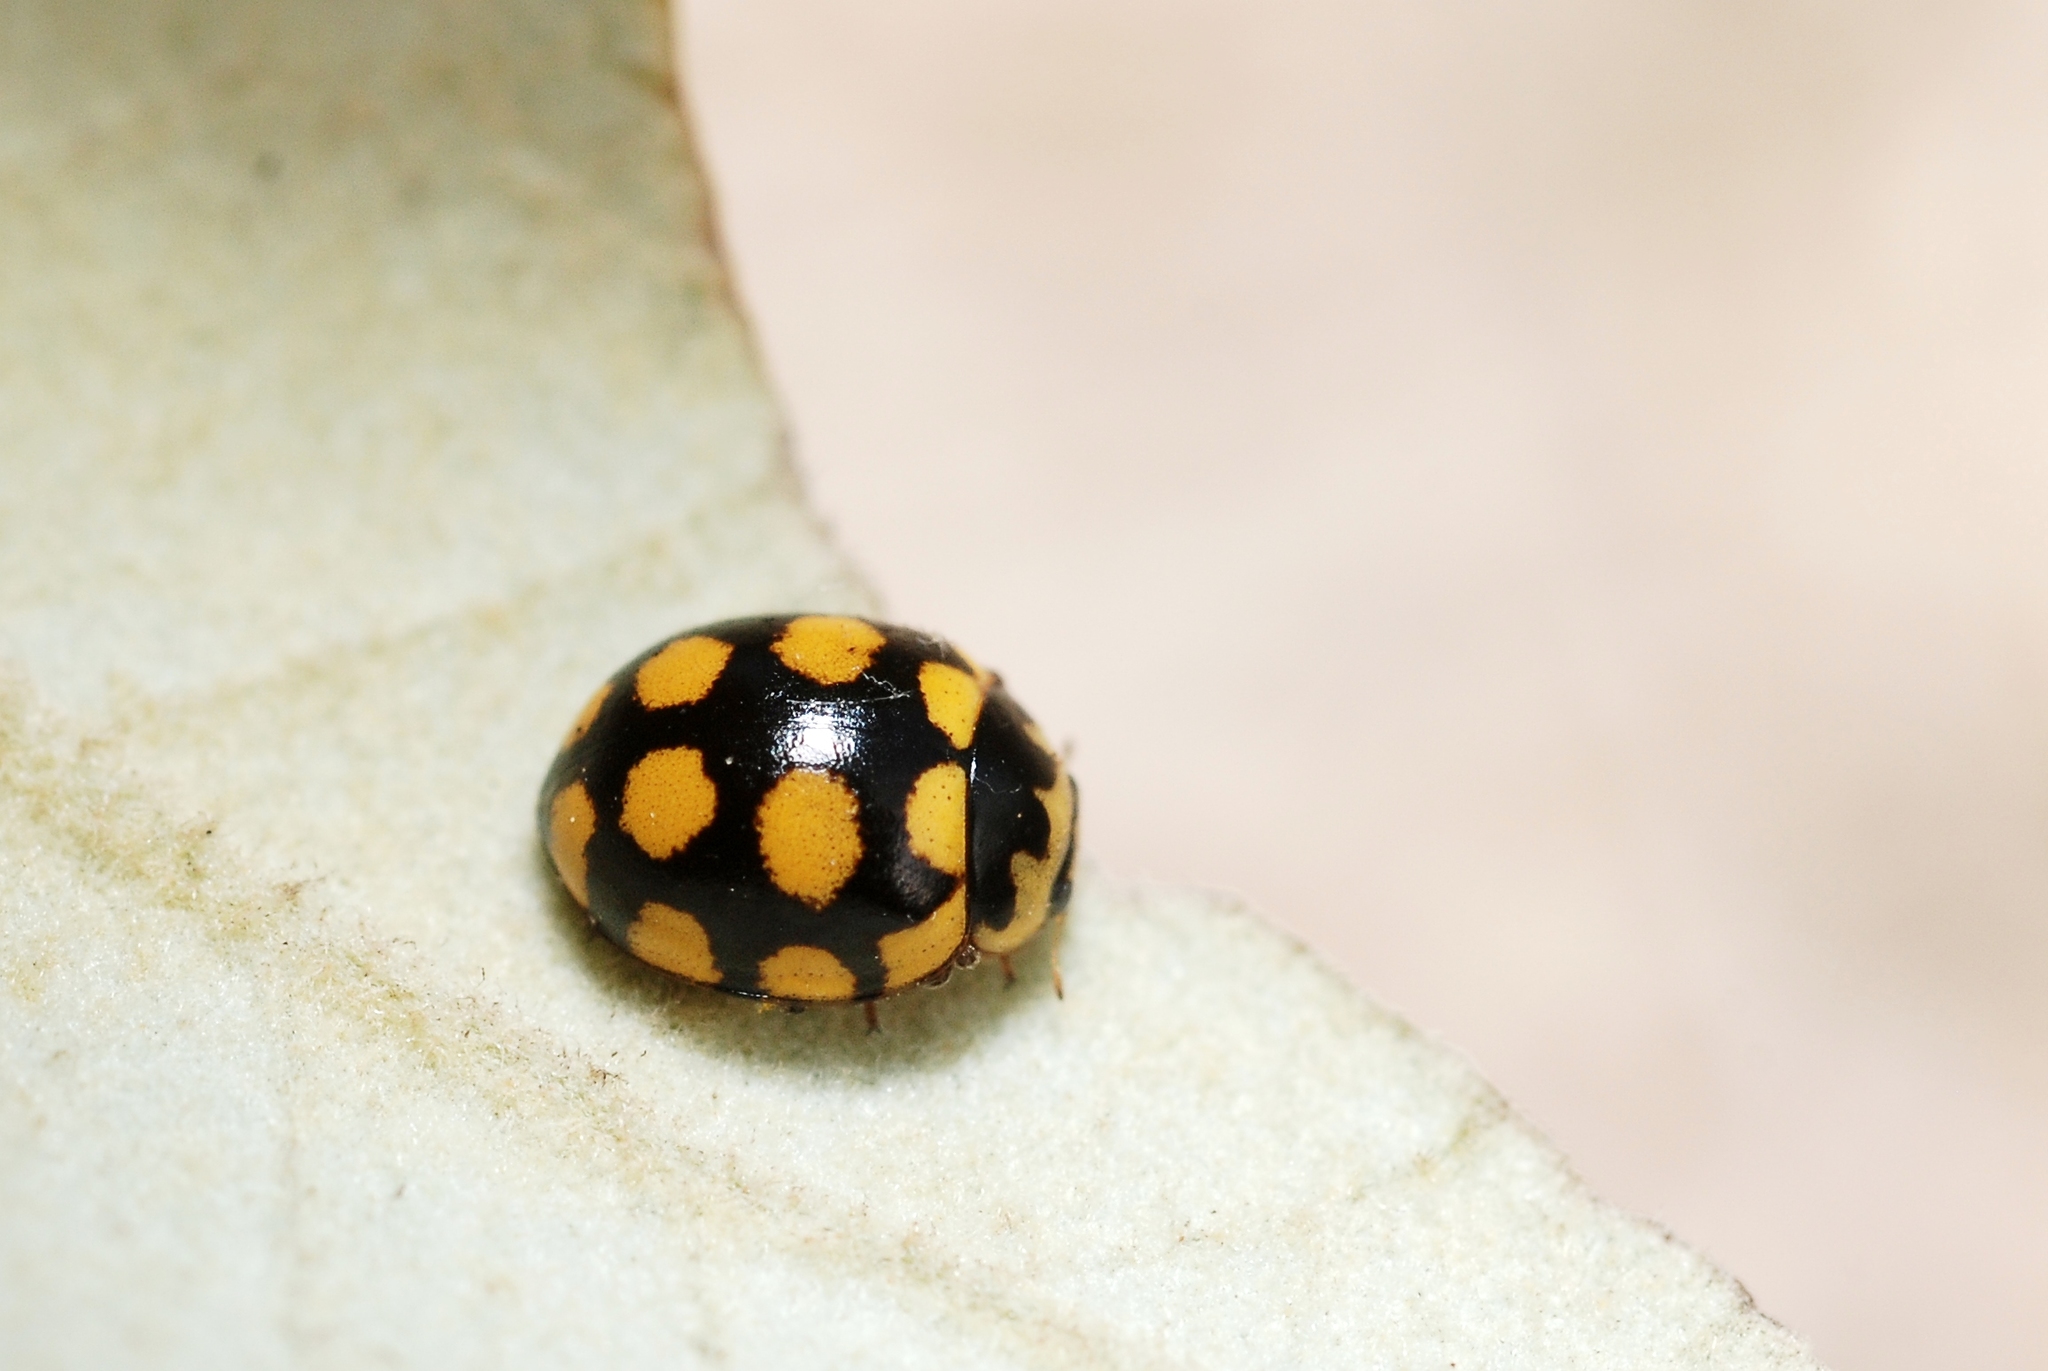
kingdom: Animalia
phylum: Arthropoda
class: Insecta
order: Coleoptera
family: Coccinellidae
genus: Coccinula
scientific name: Coccinula quatuordecimpustulata
